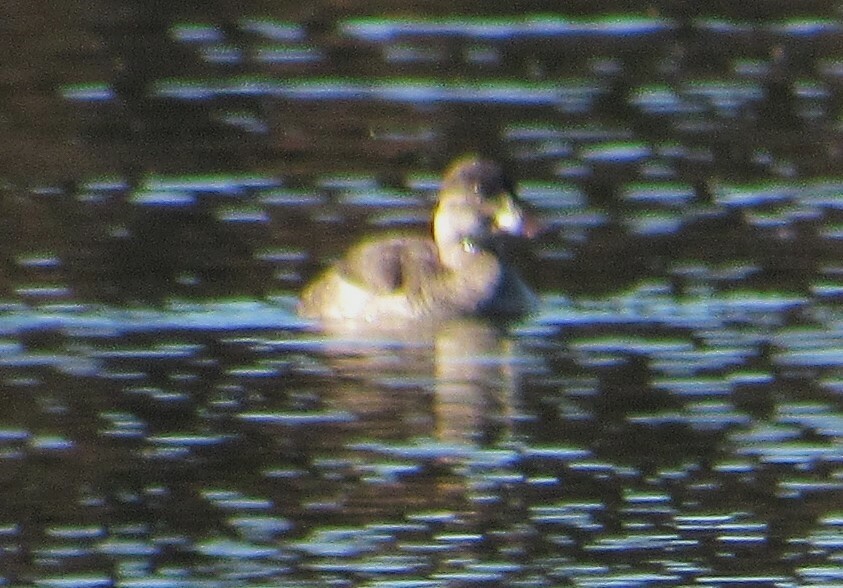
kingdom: Animalia
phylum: Chordata
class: Aves
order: Anseriformes
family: Anatidae
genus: Oxyura
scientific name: Oxyura jamaicensis
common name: Ruddy duck
